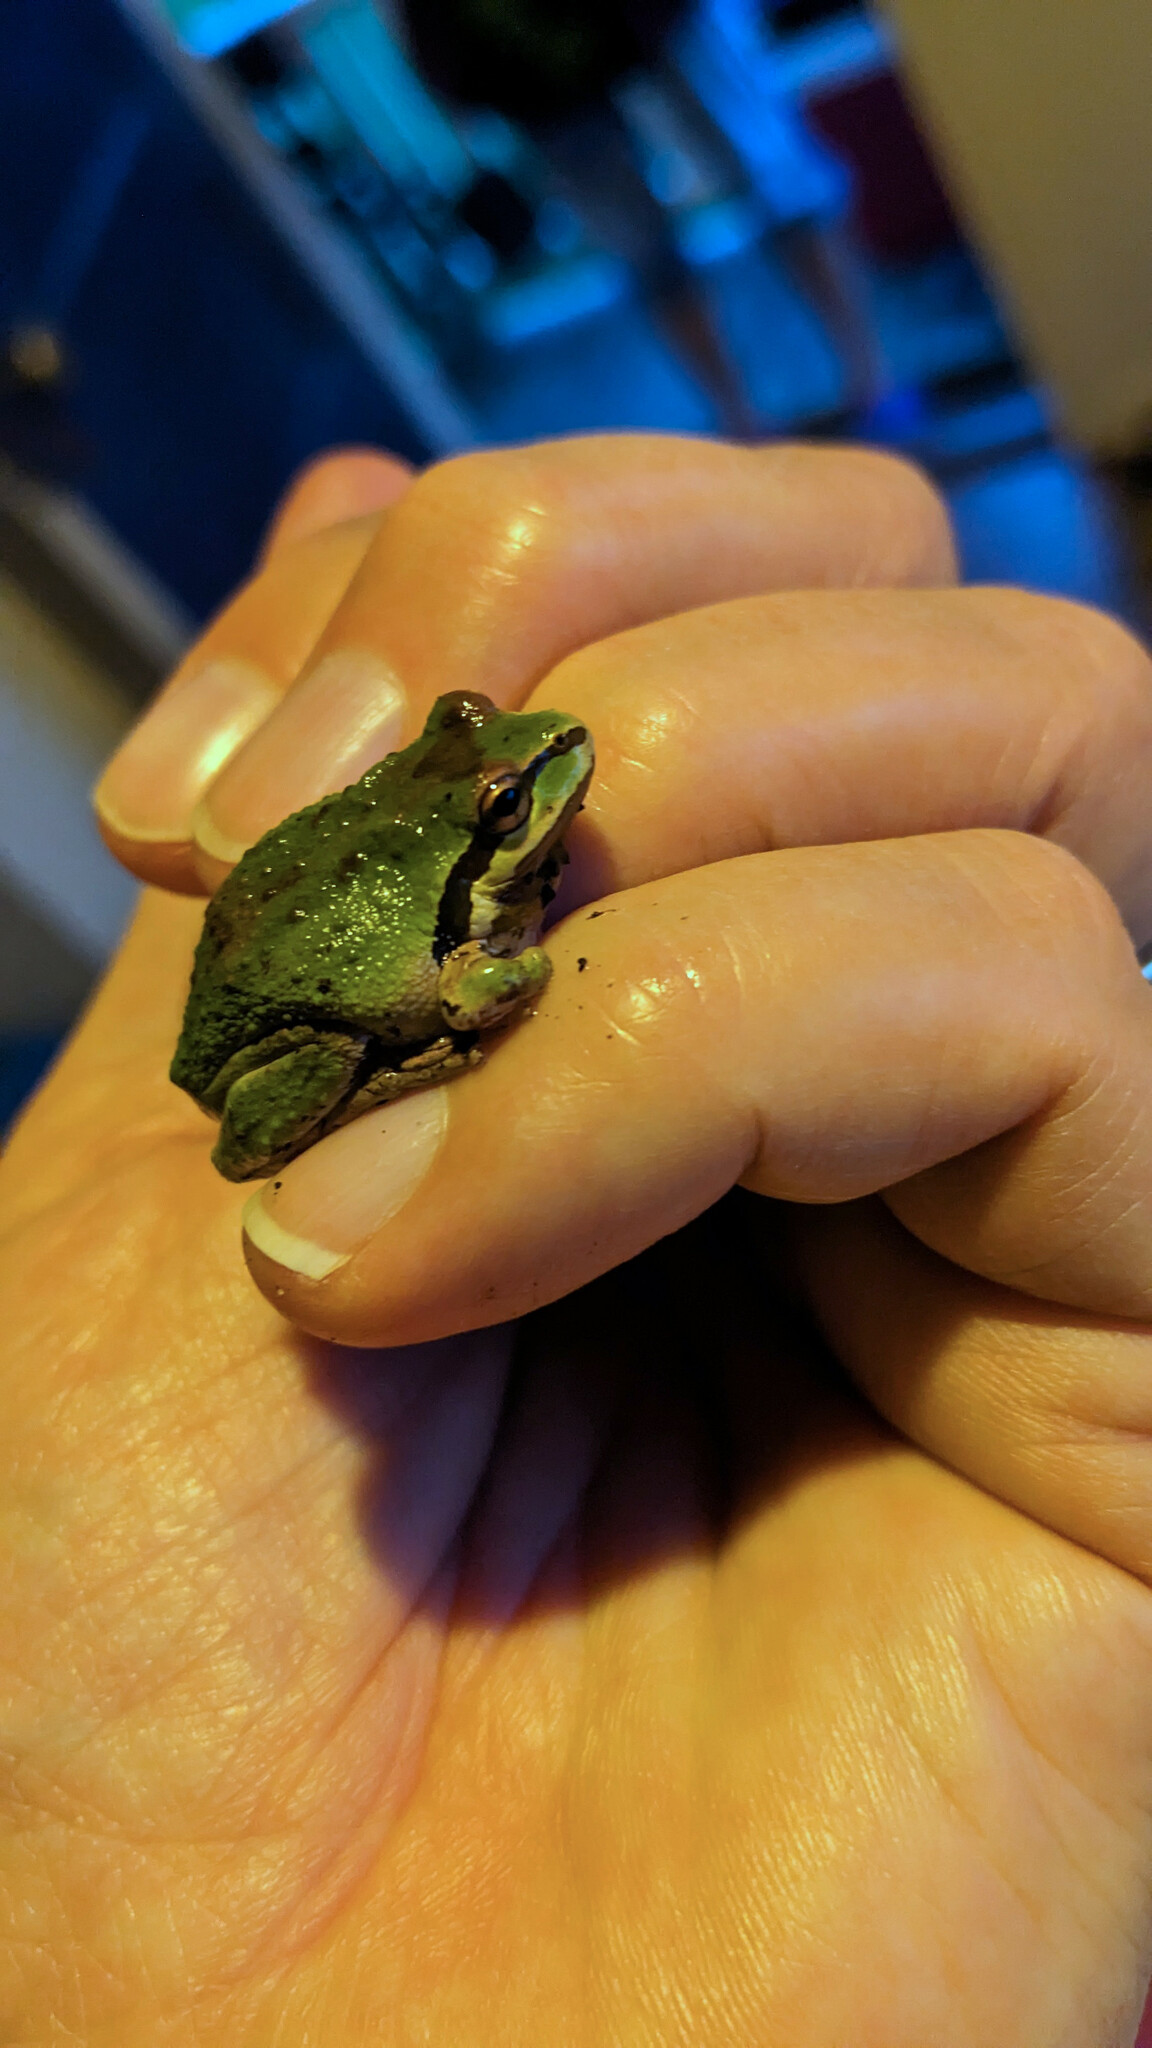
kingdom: Animalia
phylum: Chordata
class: Amphibia
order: Anura
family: Hylidae
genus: Pseudacris
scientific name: Pseudacris regilla
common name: Pacific chorus frog
